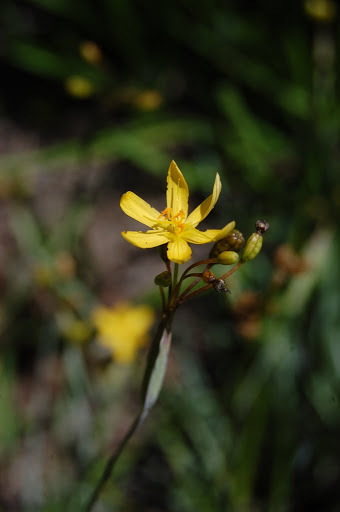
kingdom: Plantae
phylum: Tracheophyta
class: Liliopsida
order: Asparagales
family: Iridaceae
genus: Sisyrinchium
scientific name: Sisyrinchium elmeri
